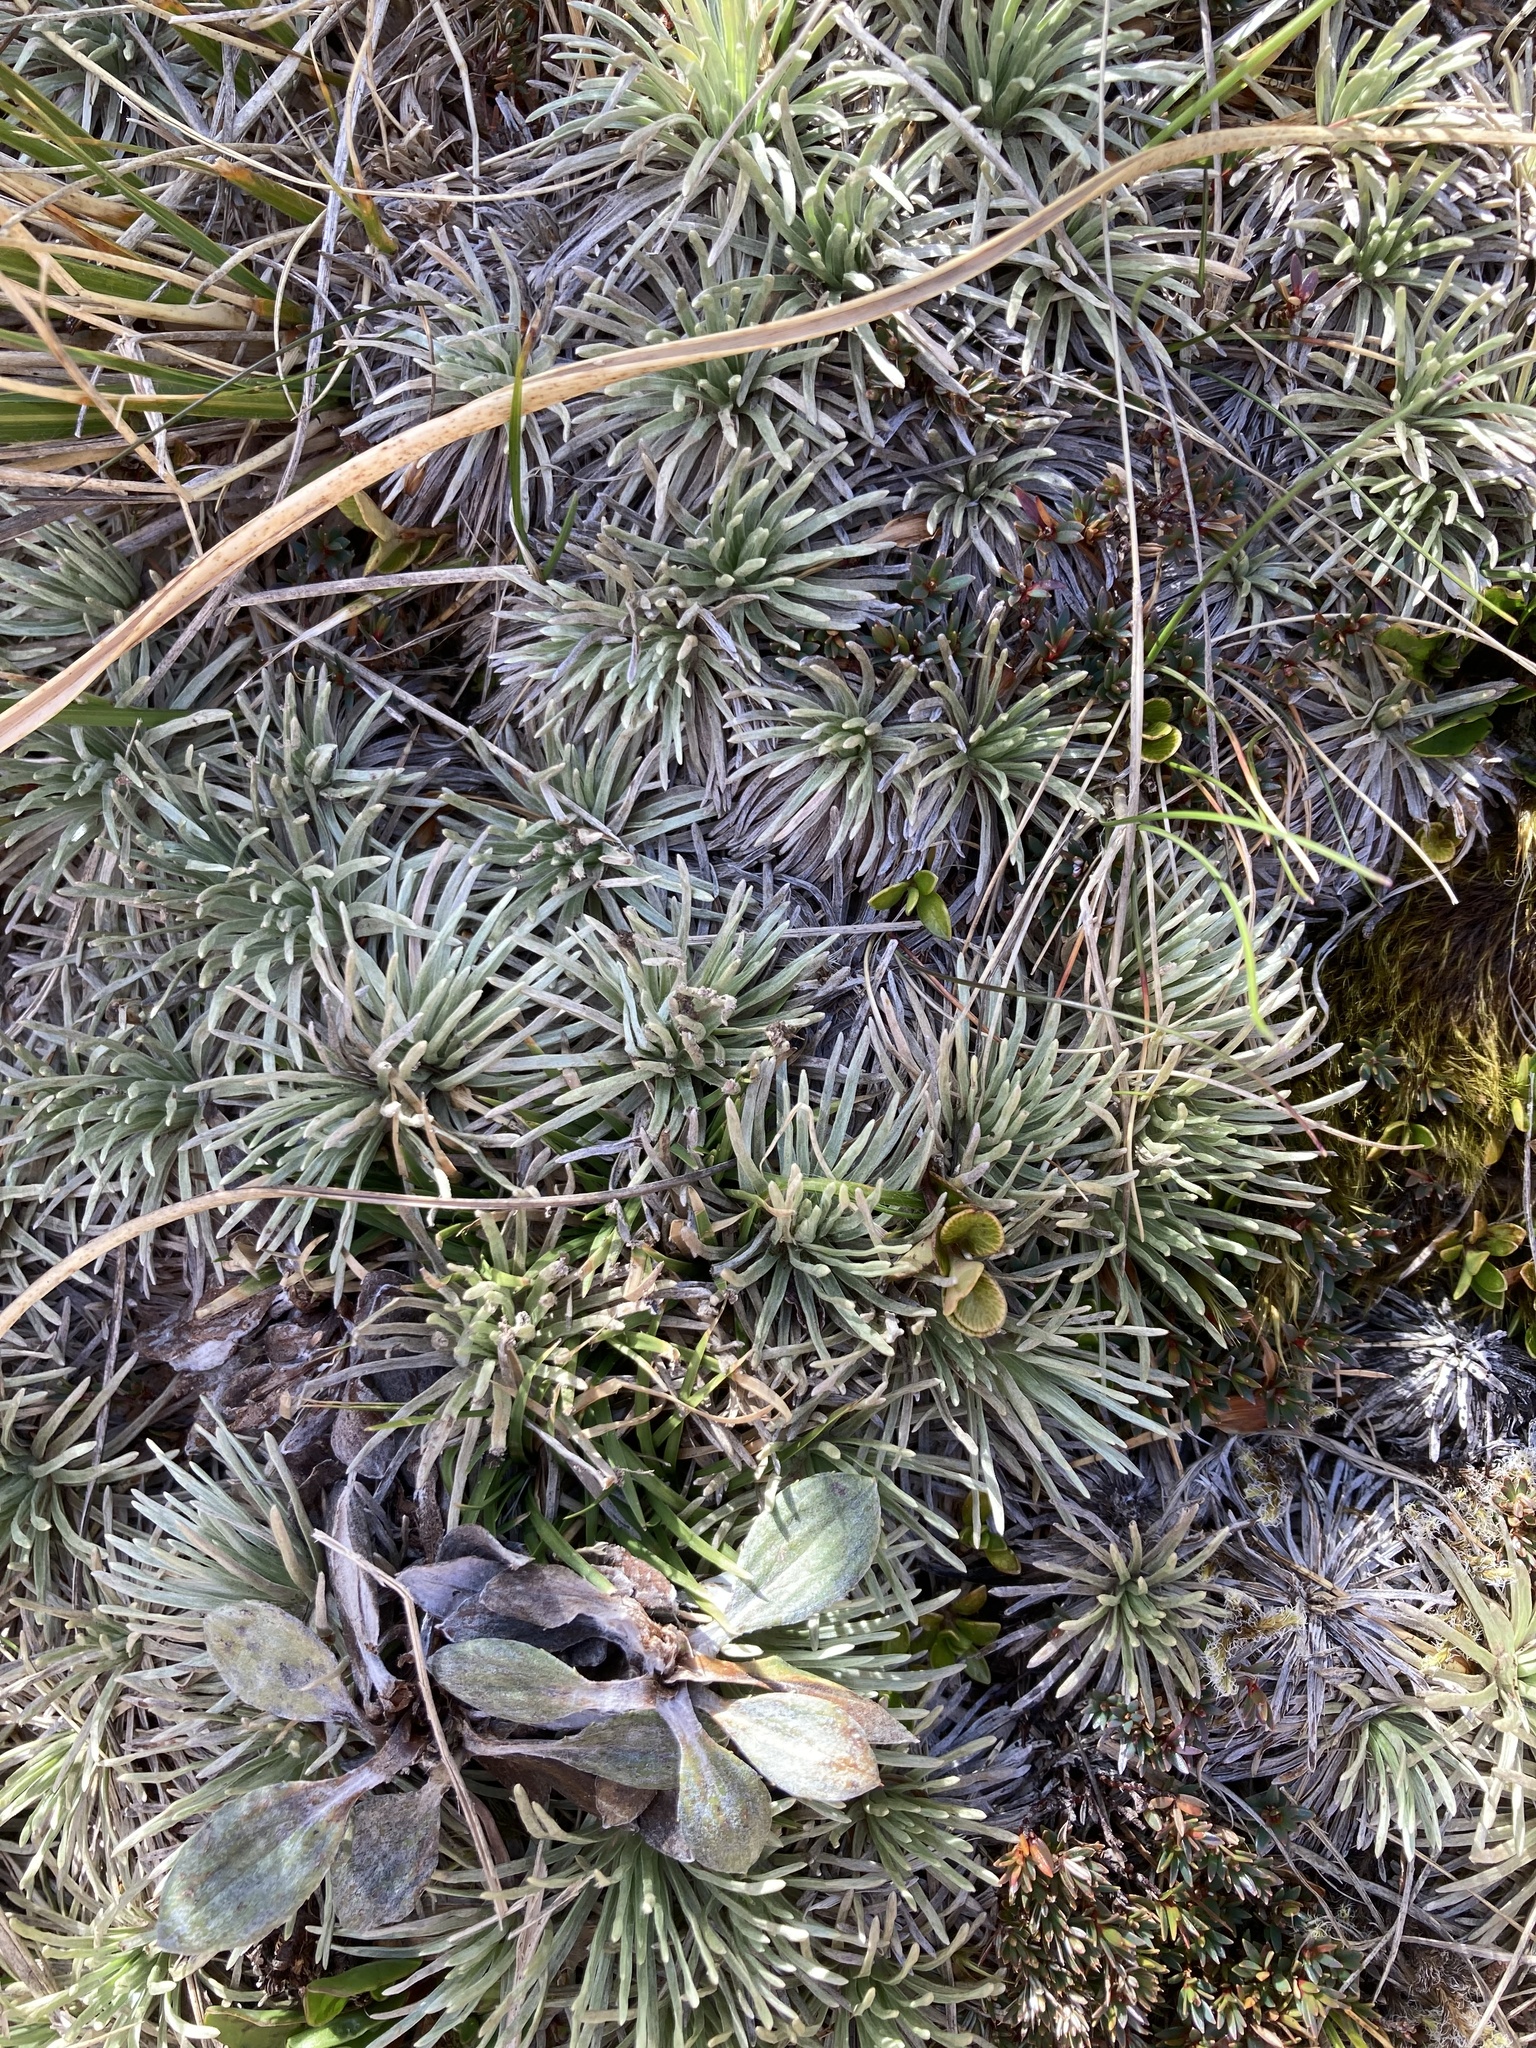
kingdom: Plantae
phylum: Tracheophyta
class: Magnoliopsida
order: Asterales
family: Asteraceae
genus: Celmisia
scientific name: Celmisia sessiliflora
